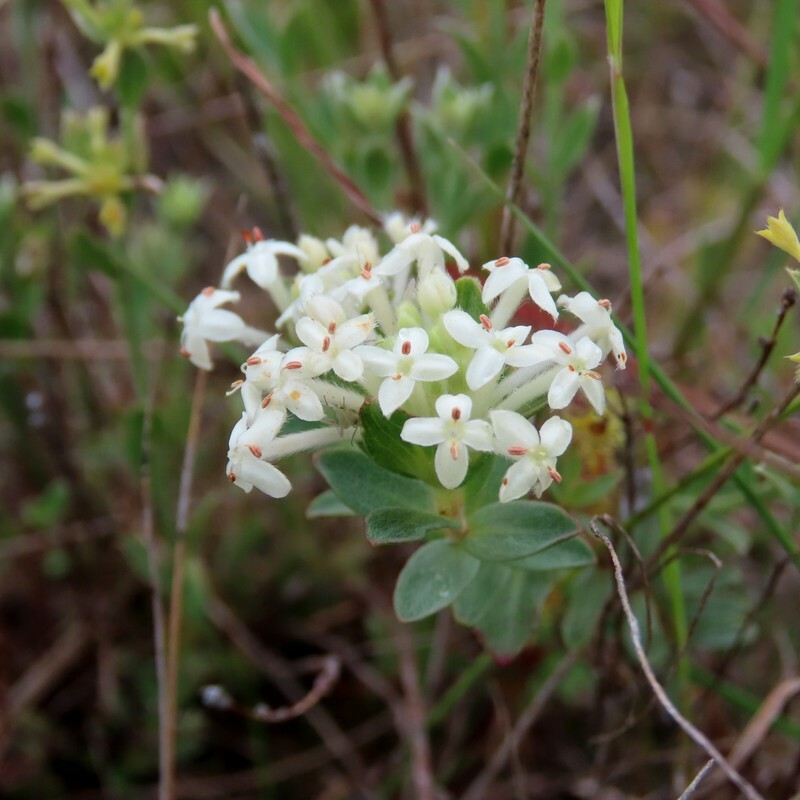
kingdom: Plantae
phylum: Tracheophyta
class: Magnoliopsida
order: Malvales
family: Thymelaeaceae
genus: Pimelea
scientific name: Pimelea humilis
